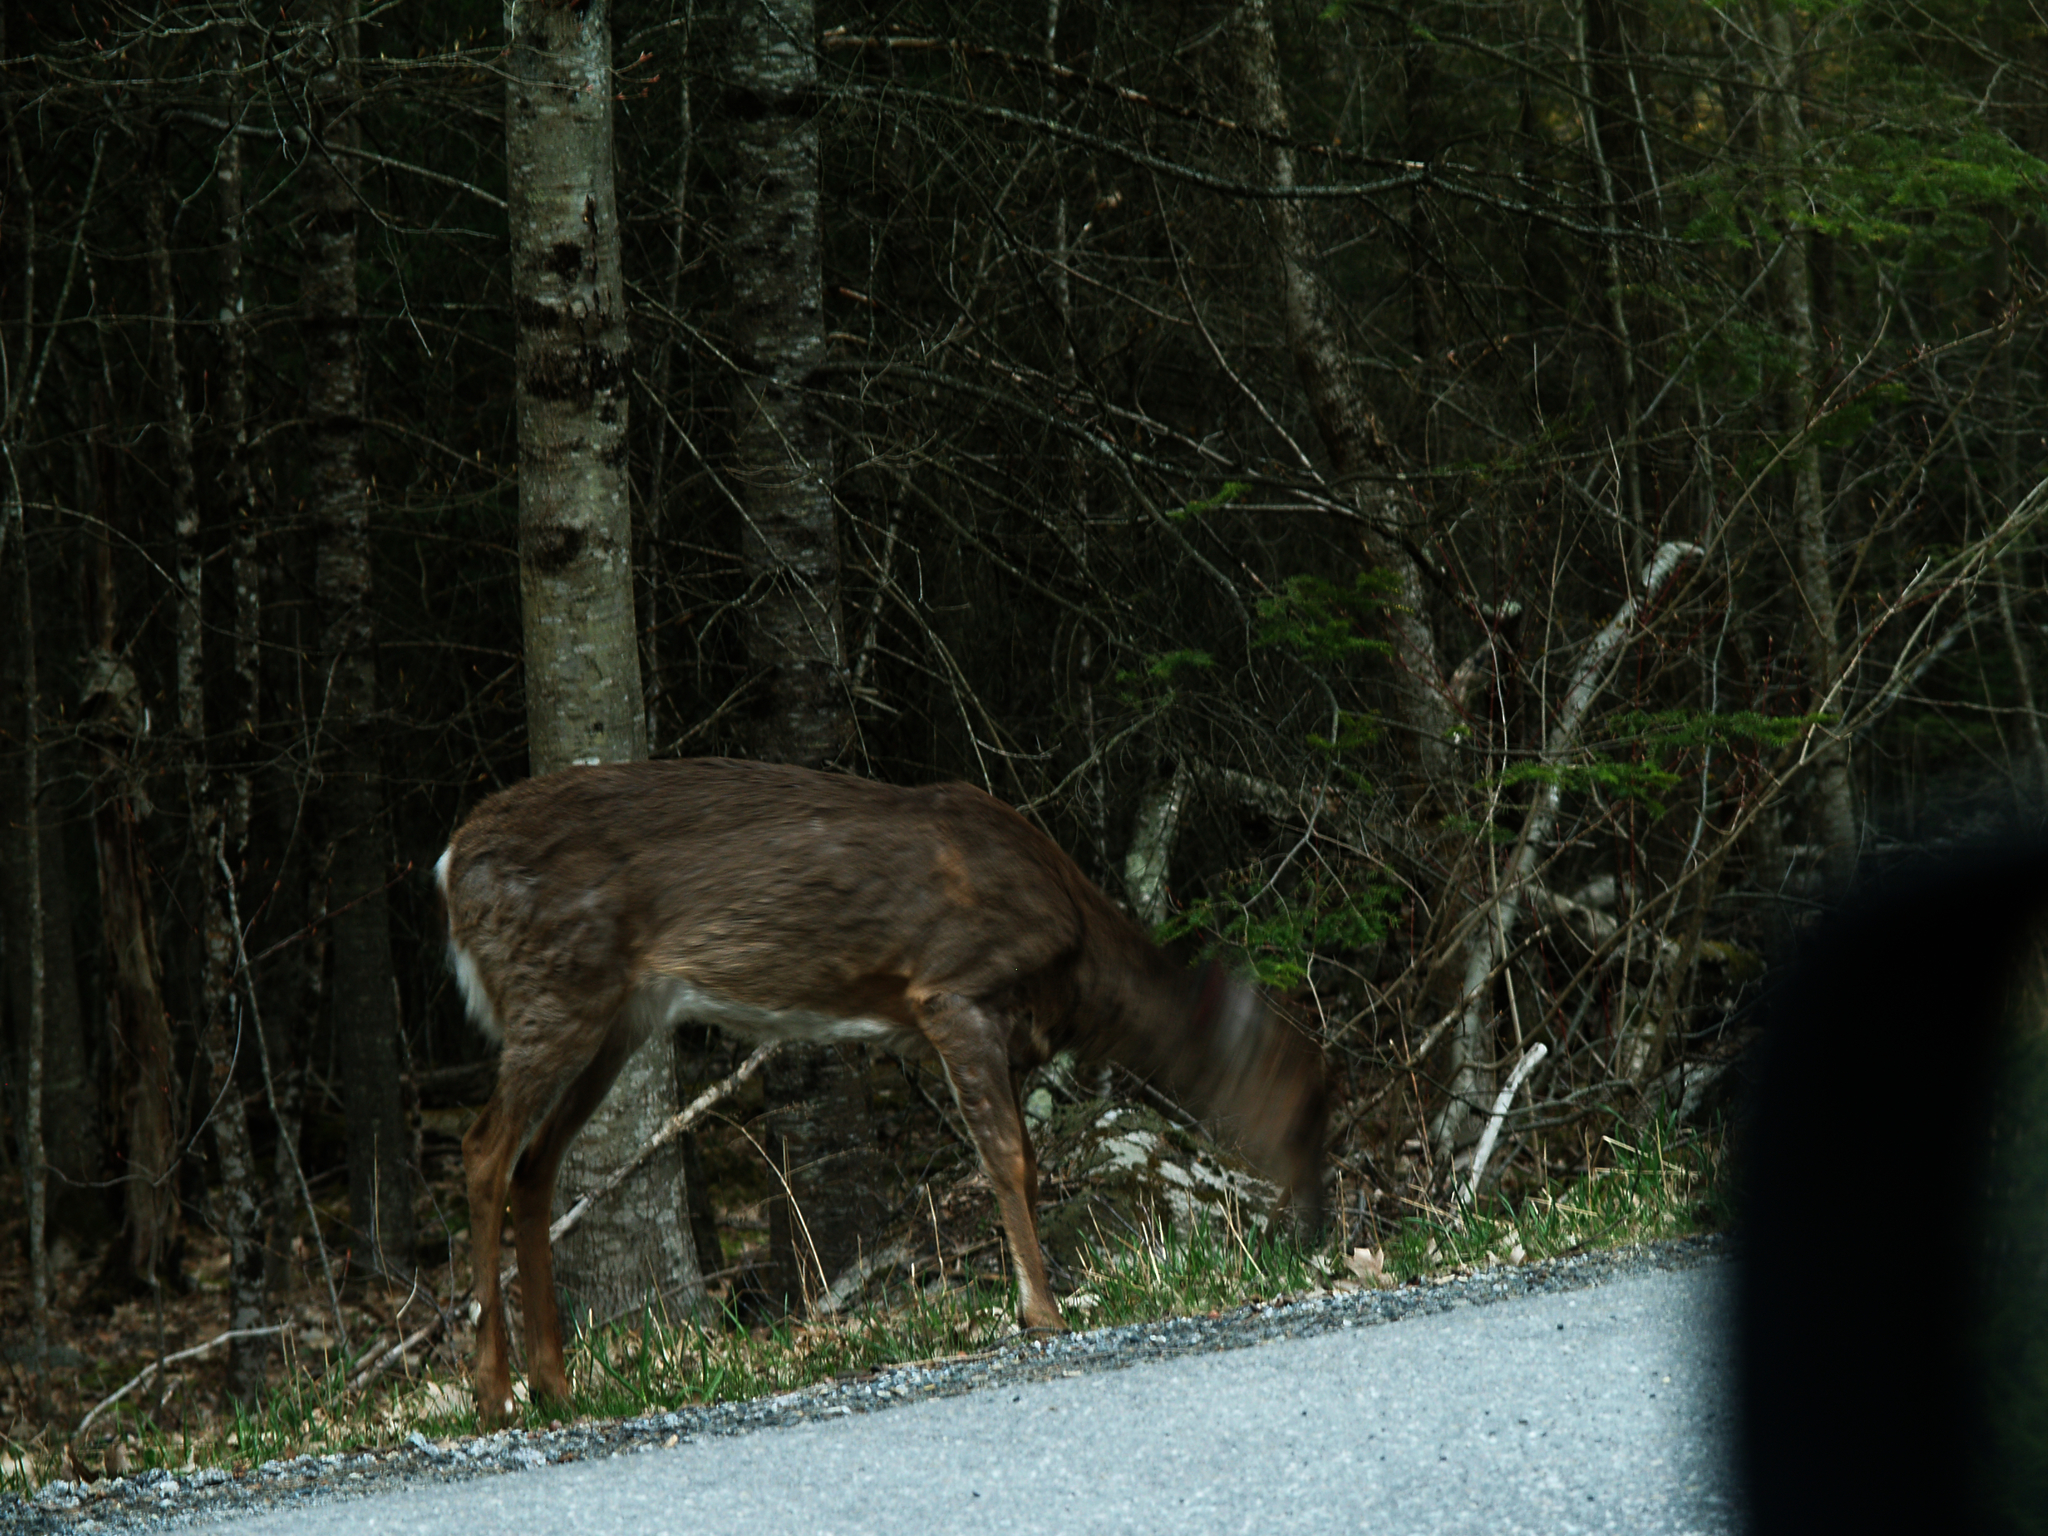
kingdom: Animalia
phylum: Chordata
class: Mammalia
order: Artiodactyla
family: Cervidae
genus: Odocoileus
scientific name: Odocoileus virginianus
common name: White-tailed deer
